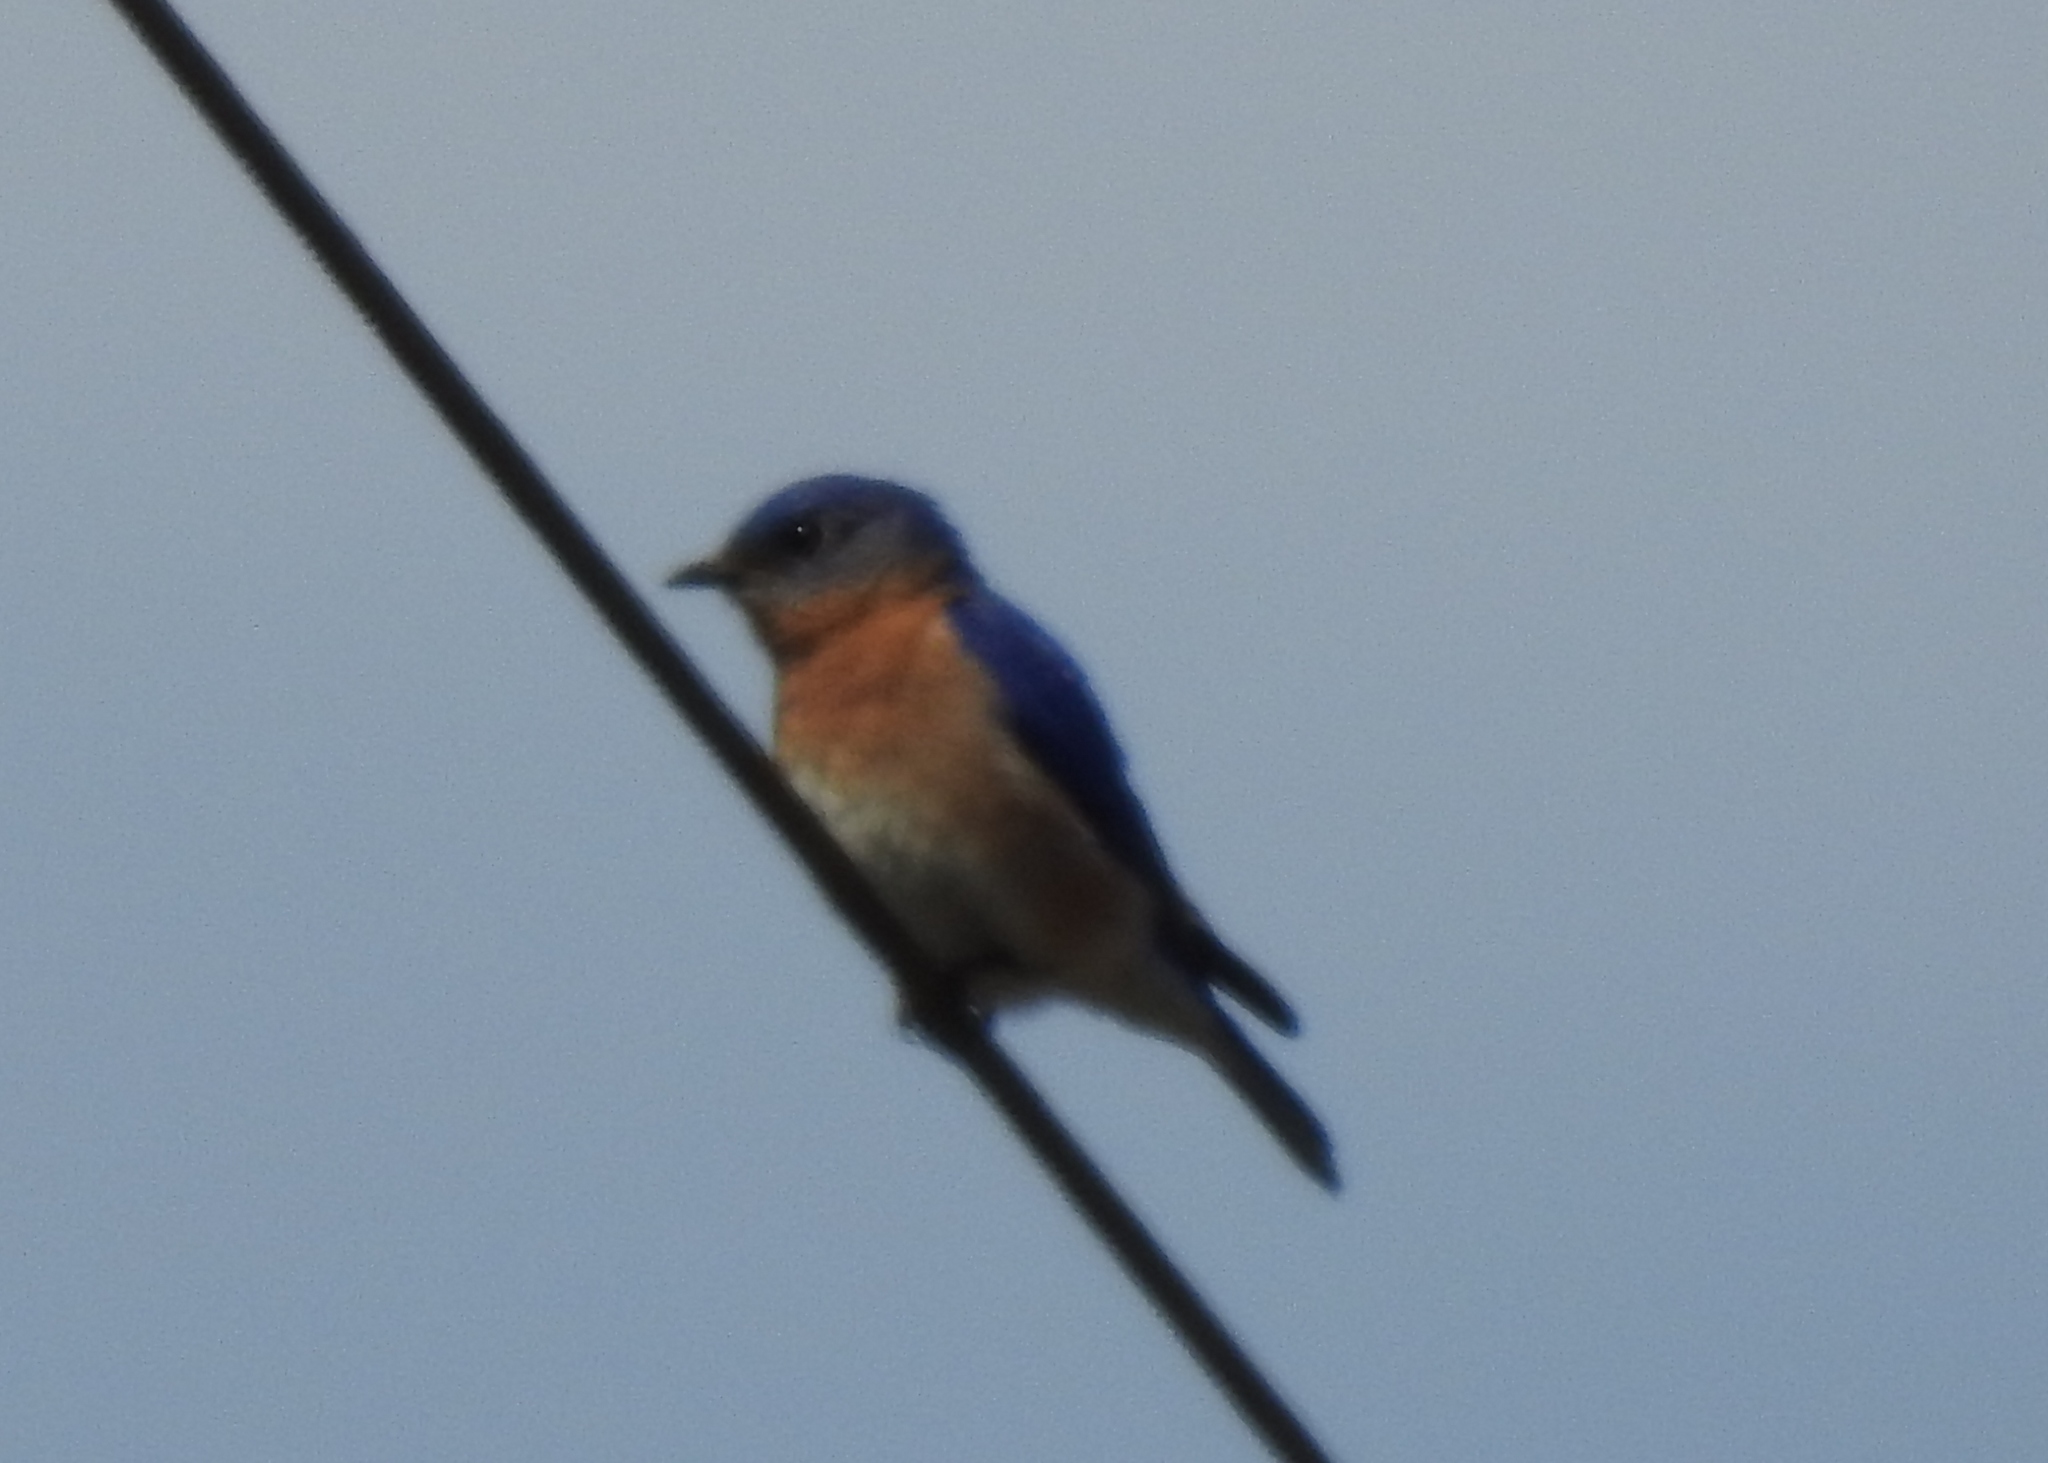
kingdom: Animalia
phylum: Chordata
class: Aves
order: Passeriformes
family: Turdidae
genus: Sialia
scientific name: Sialia sialis
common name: Eastern bluebird
